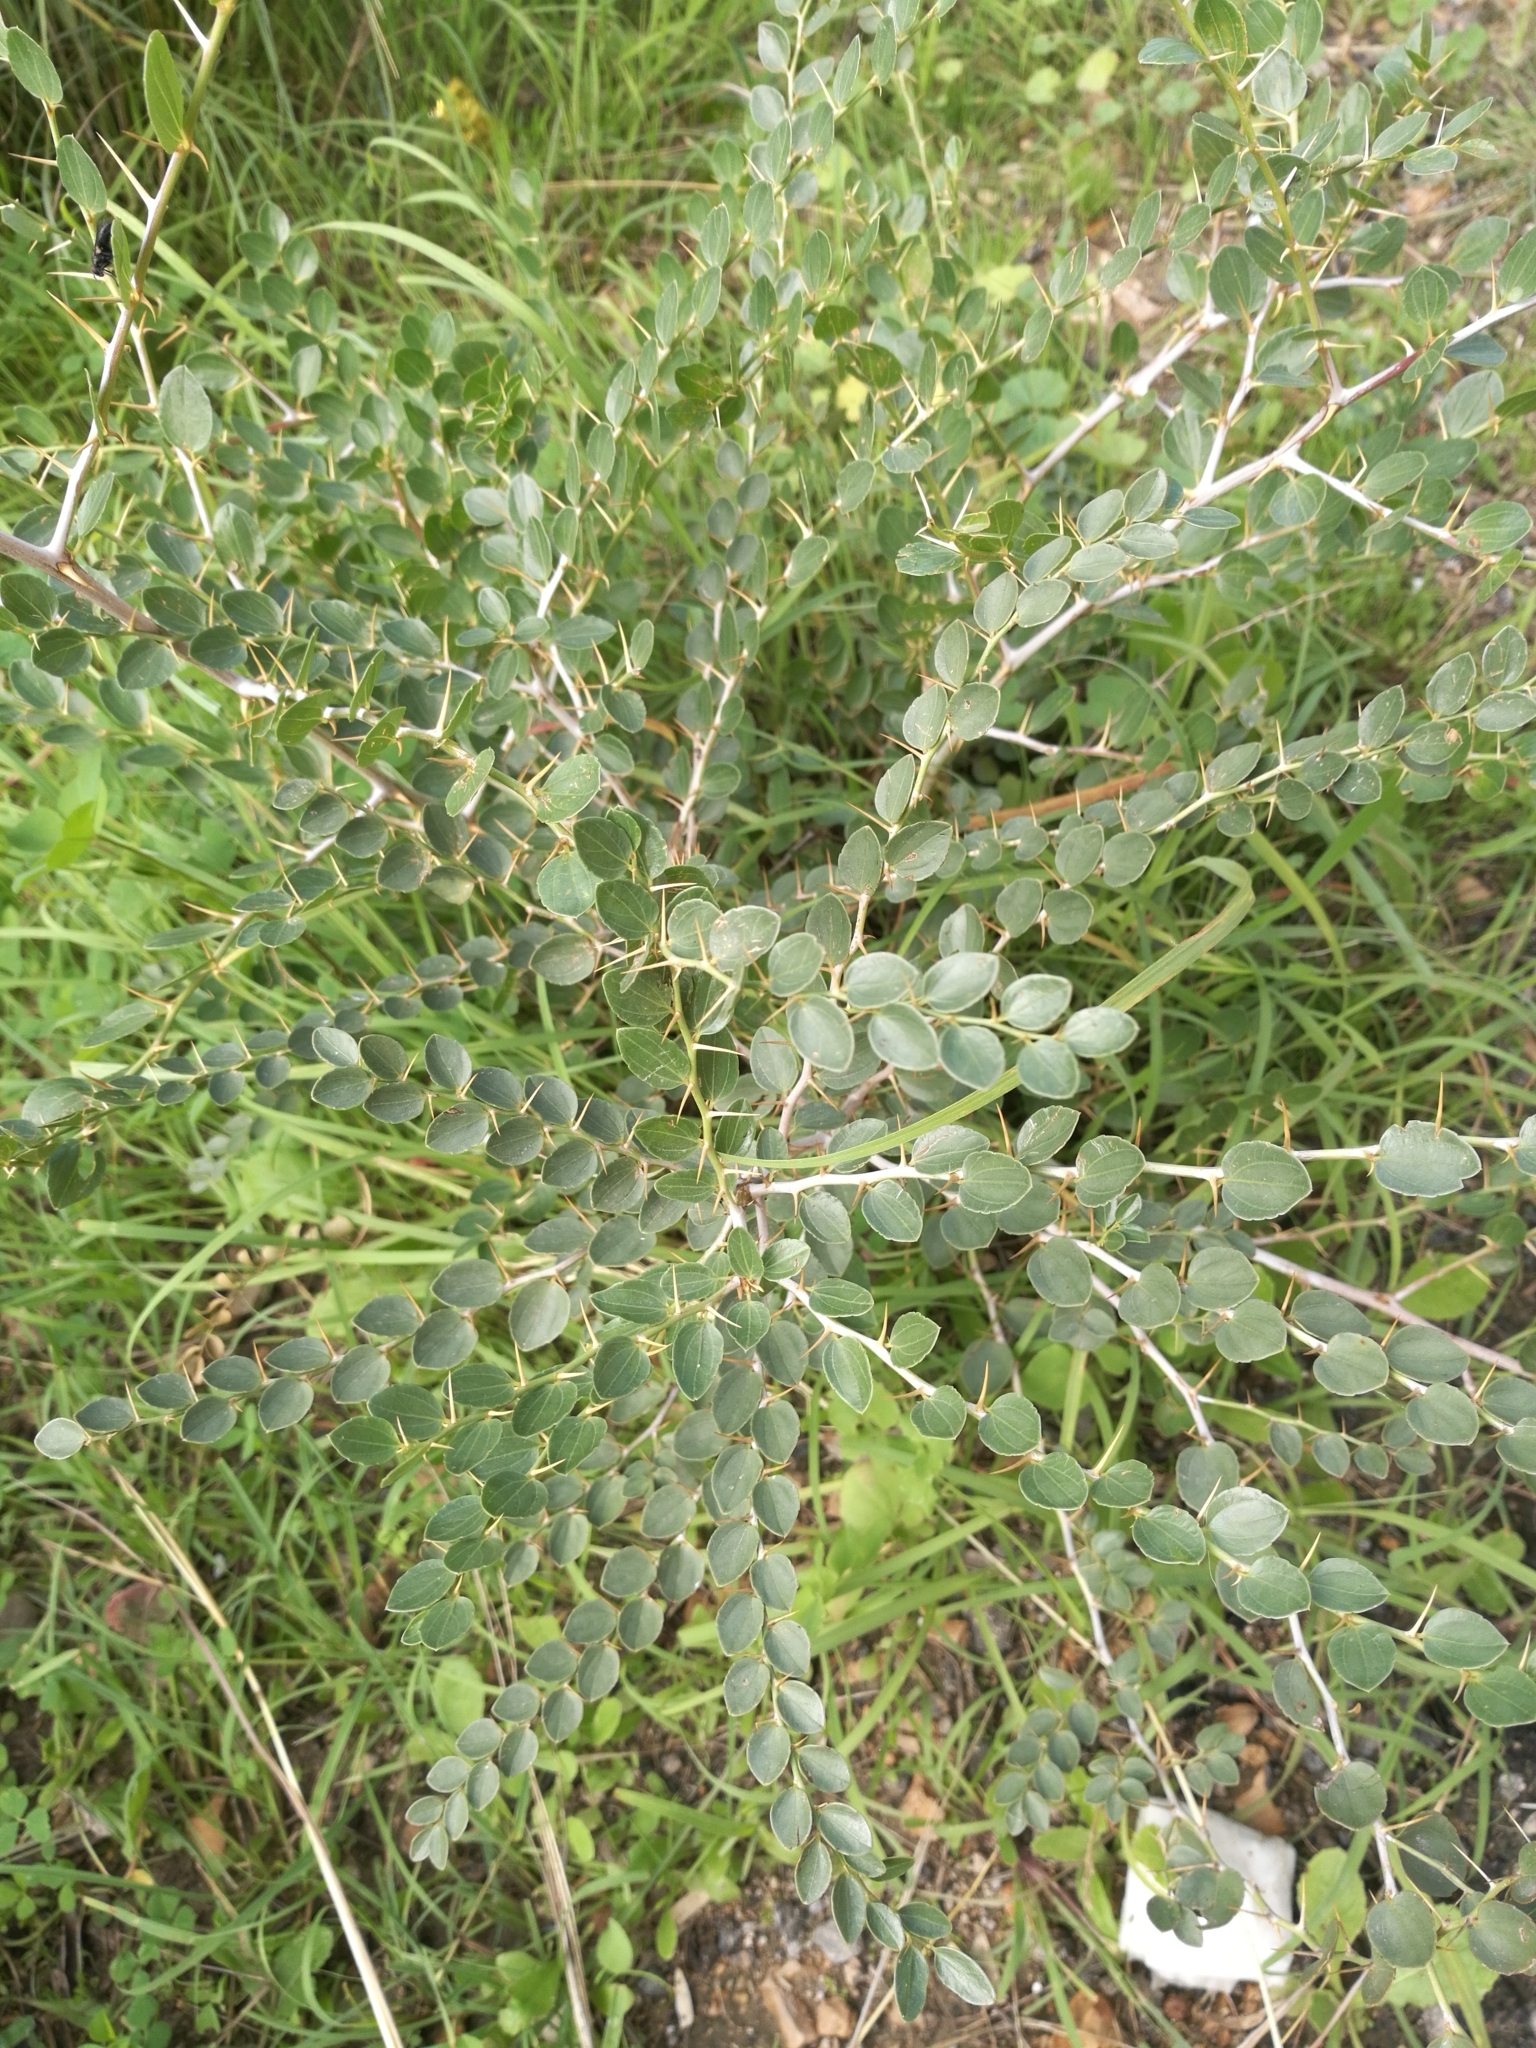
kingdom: Plantae
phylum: Tracheophyta
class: Magnoliopsida
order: Rosales
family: Rhamnaceae
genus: Ziziphus
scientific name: Ziziphus lotus
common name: Lotus
